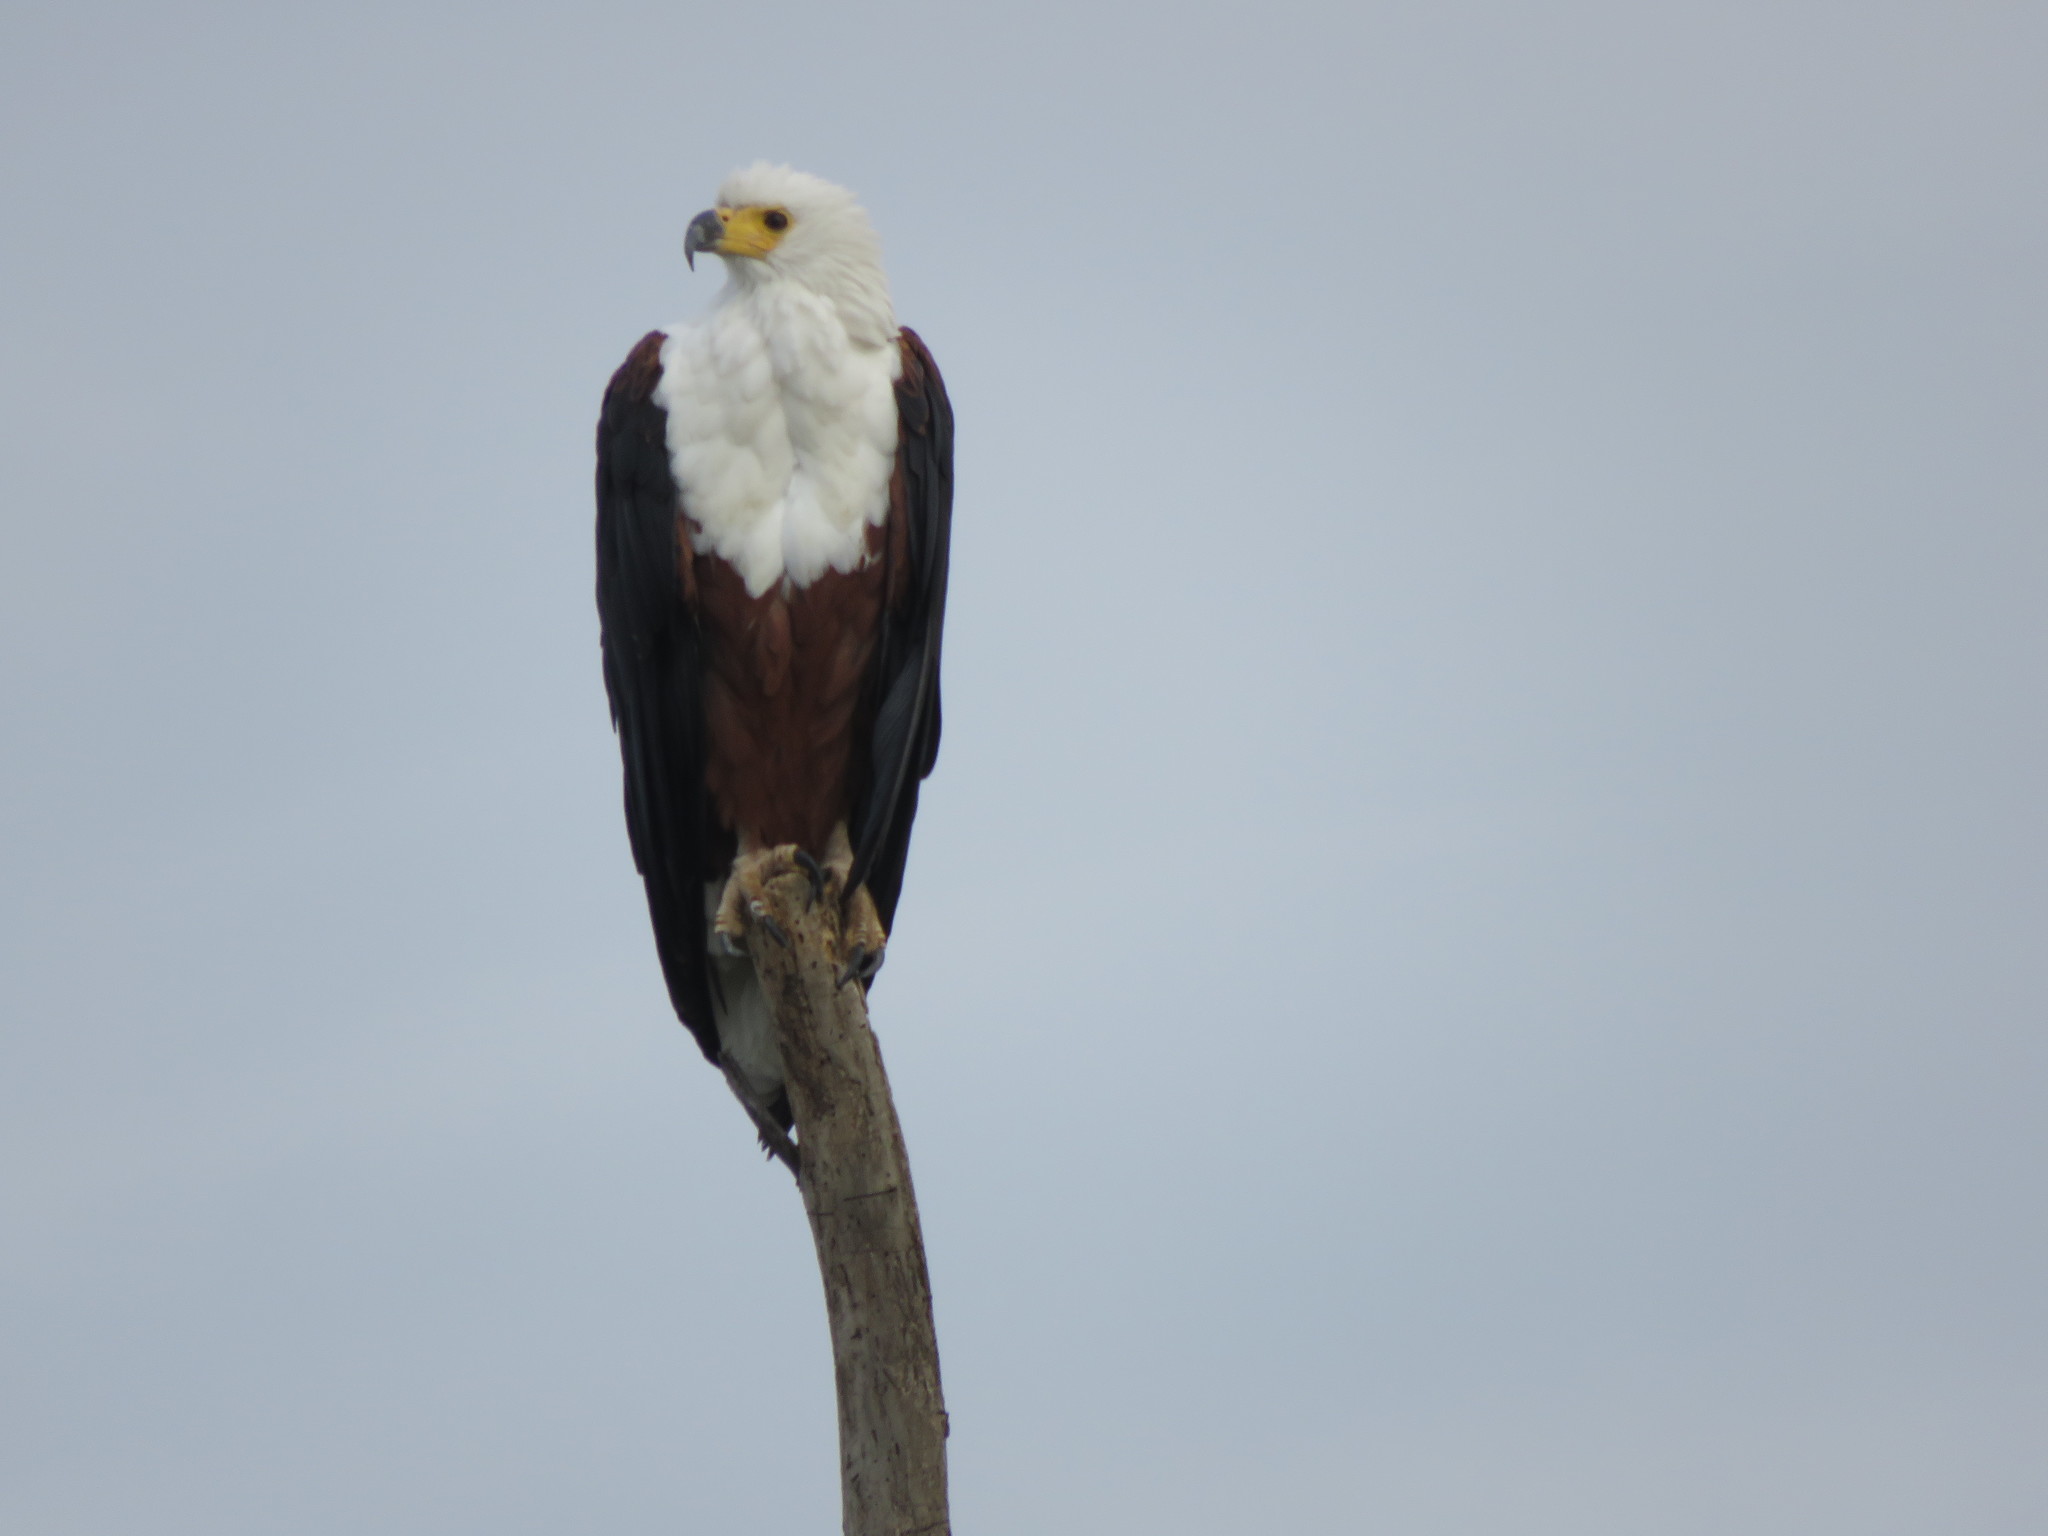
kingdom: Animalia
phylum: Chordata
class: Aves
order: Accipitriformes
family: Accipitridae
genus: Haliaeetus
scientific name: Haliaeetus vocifer
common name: African fish eagle
